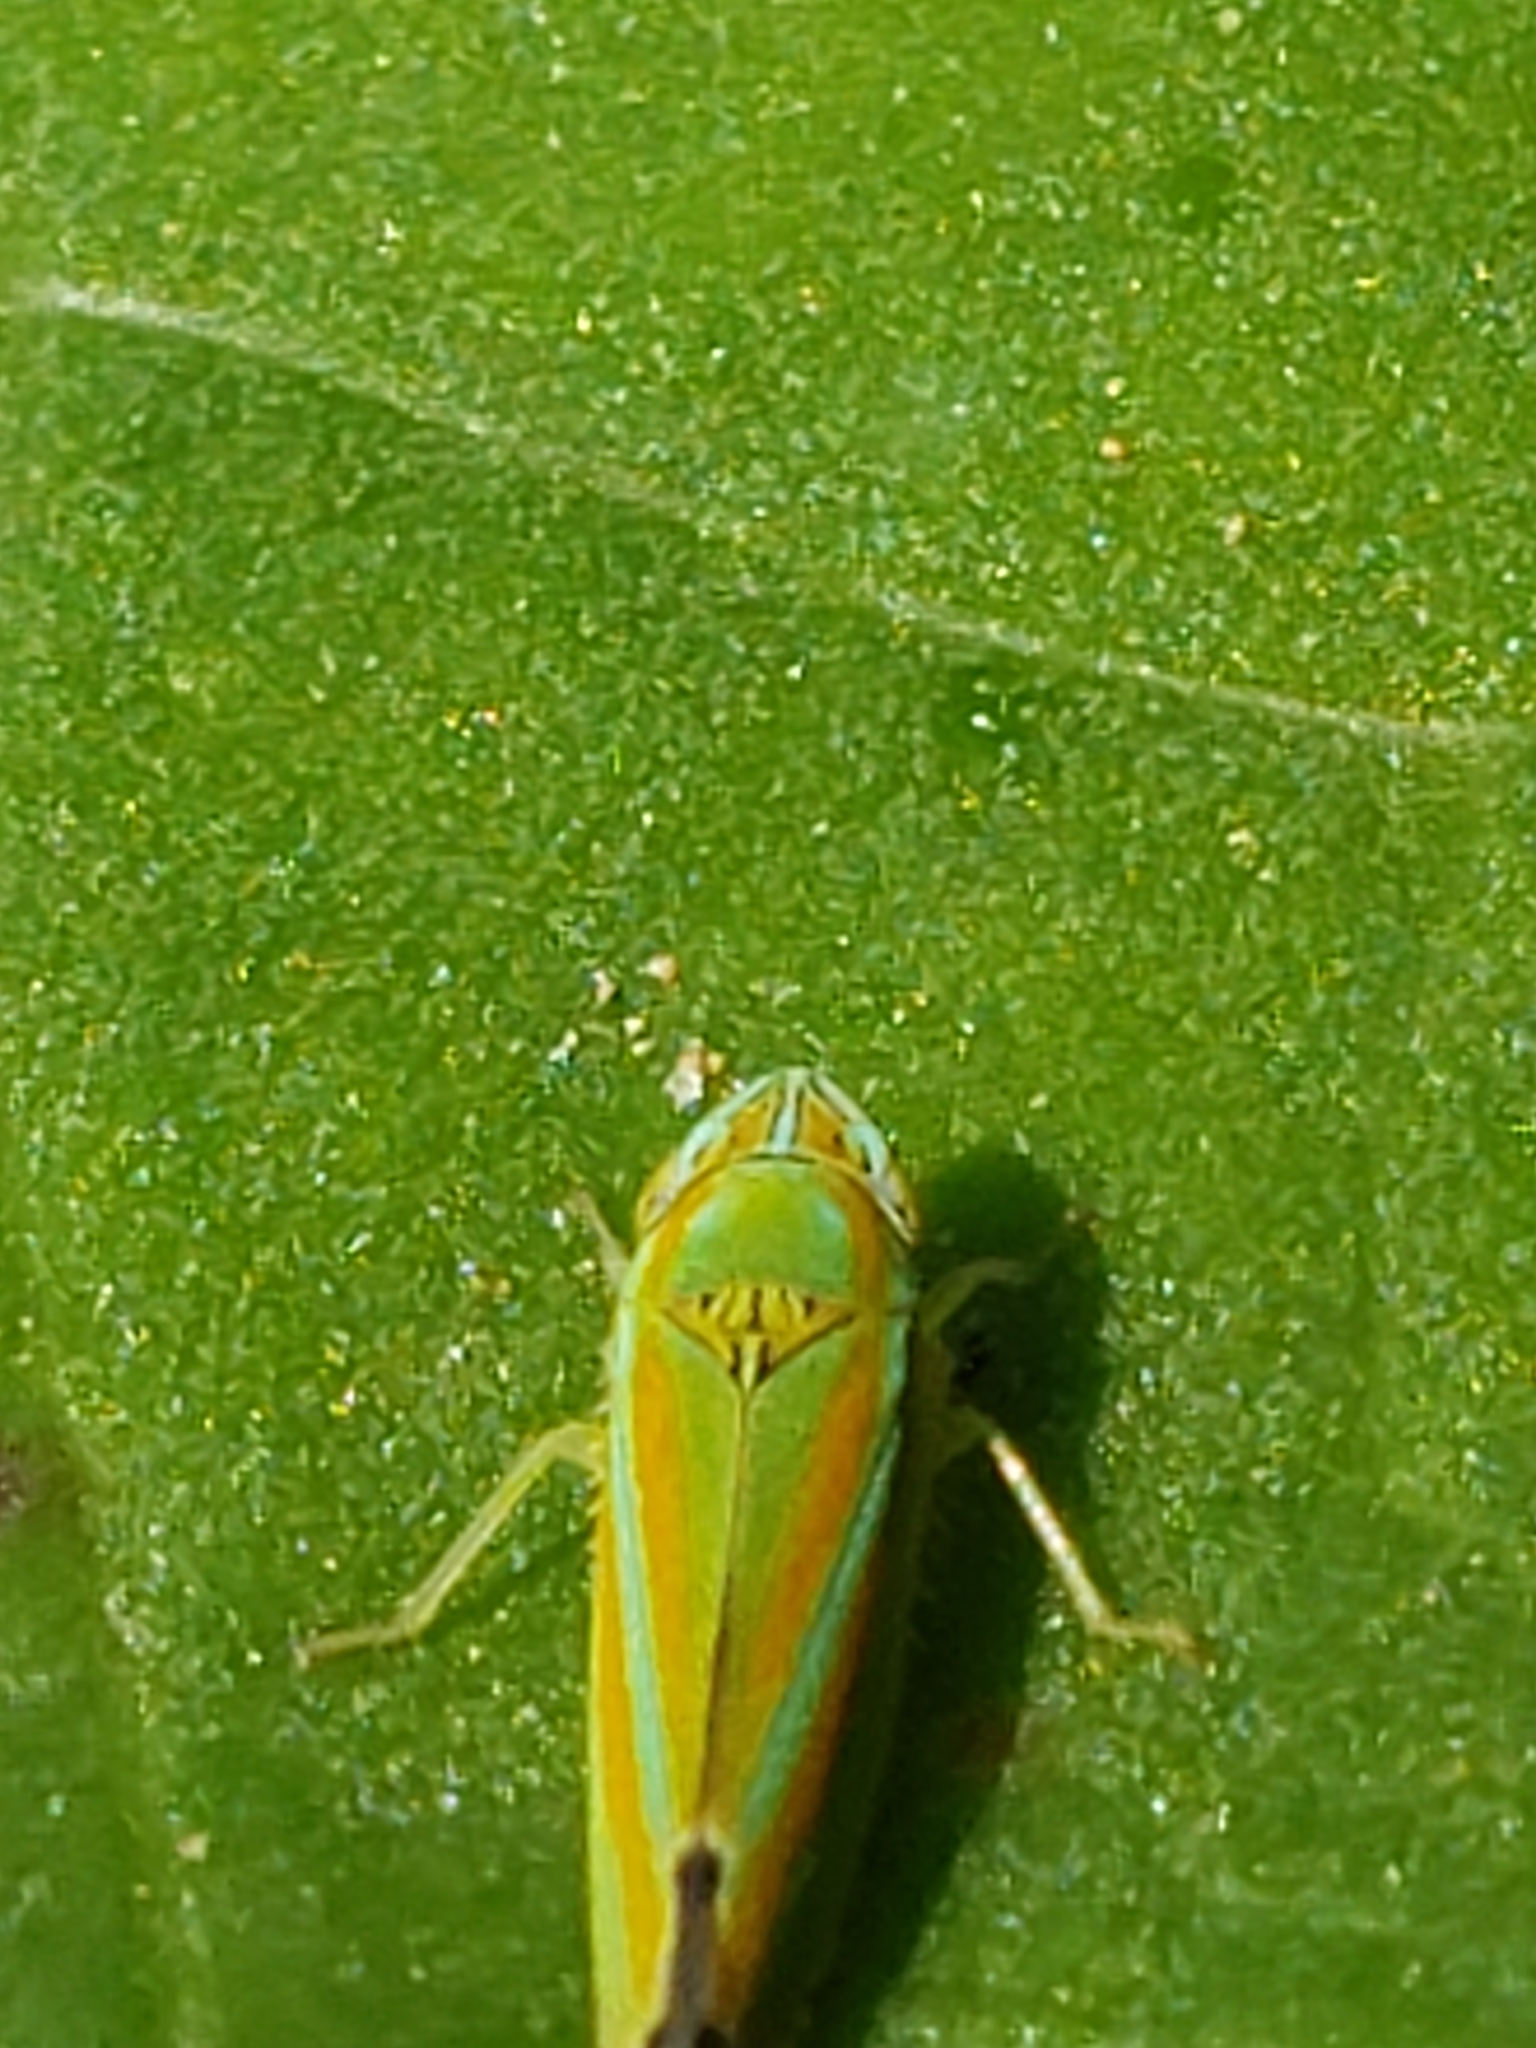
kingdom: Animalia
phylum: Arthropoda
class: Insecta
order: Hemiptera
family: Cicadellidae
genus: Graphocephala
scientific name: Graphocephala versuta
